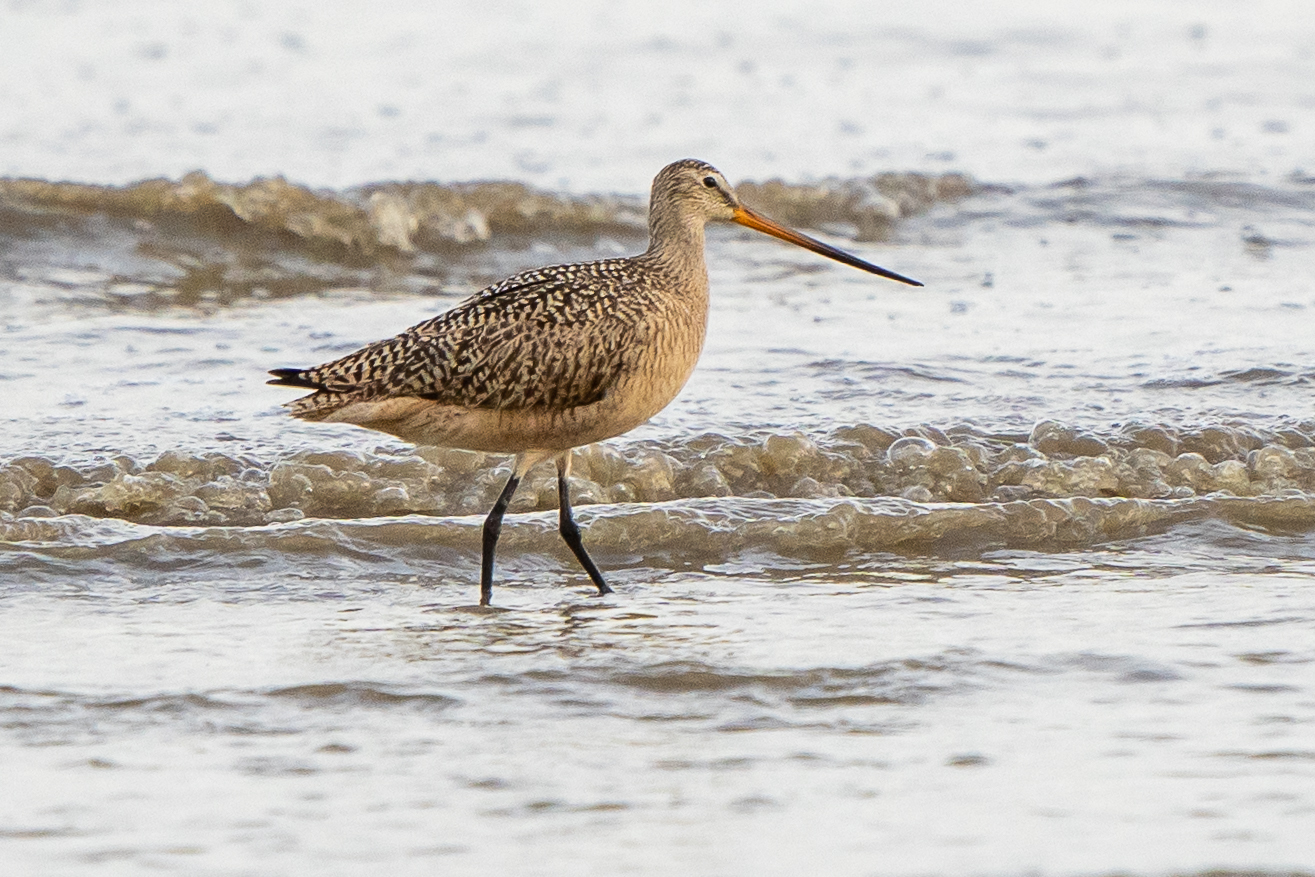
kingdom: Animalia
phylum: Chordata
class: Aves
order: Charadriiformes
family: Scolopacidae
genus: Limosa
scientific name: Limosa fedoa
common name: Marbled godwit
